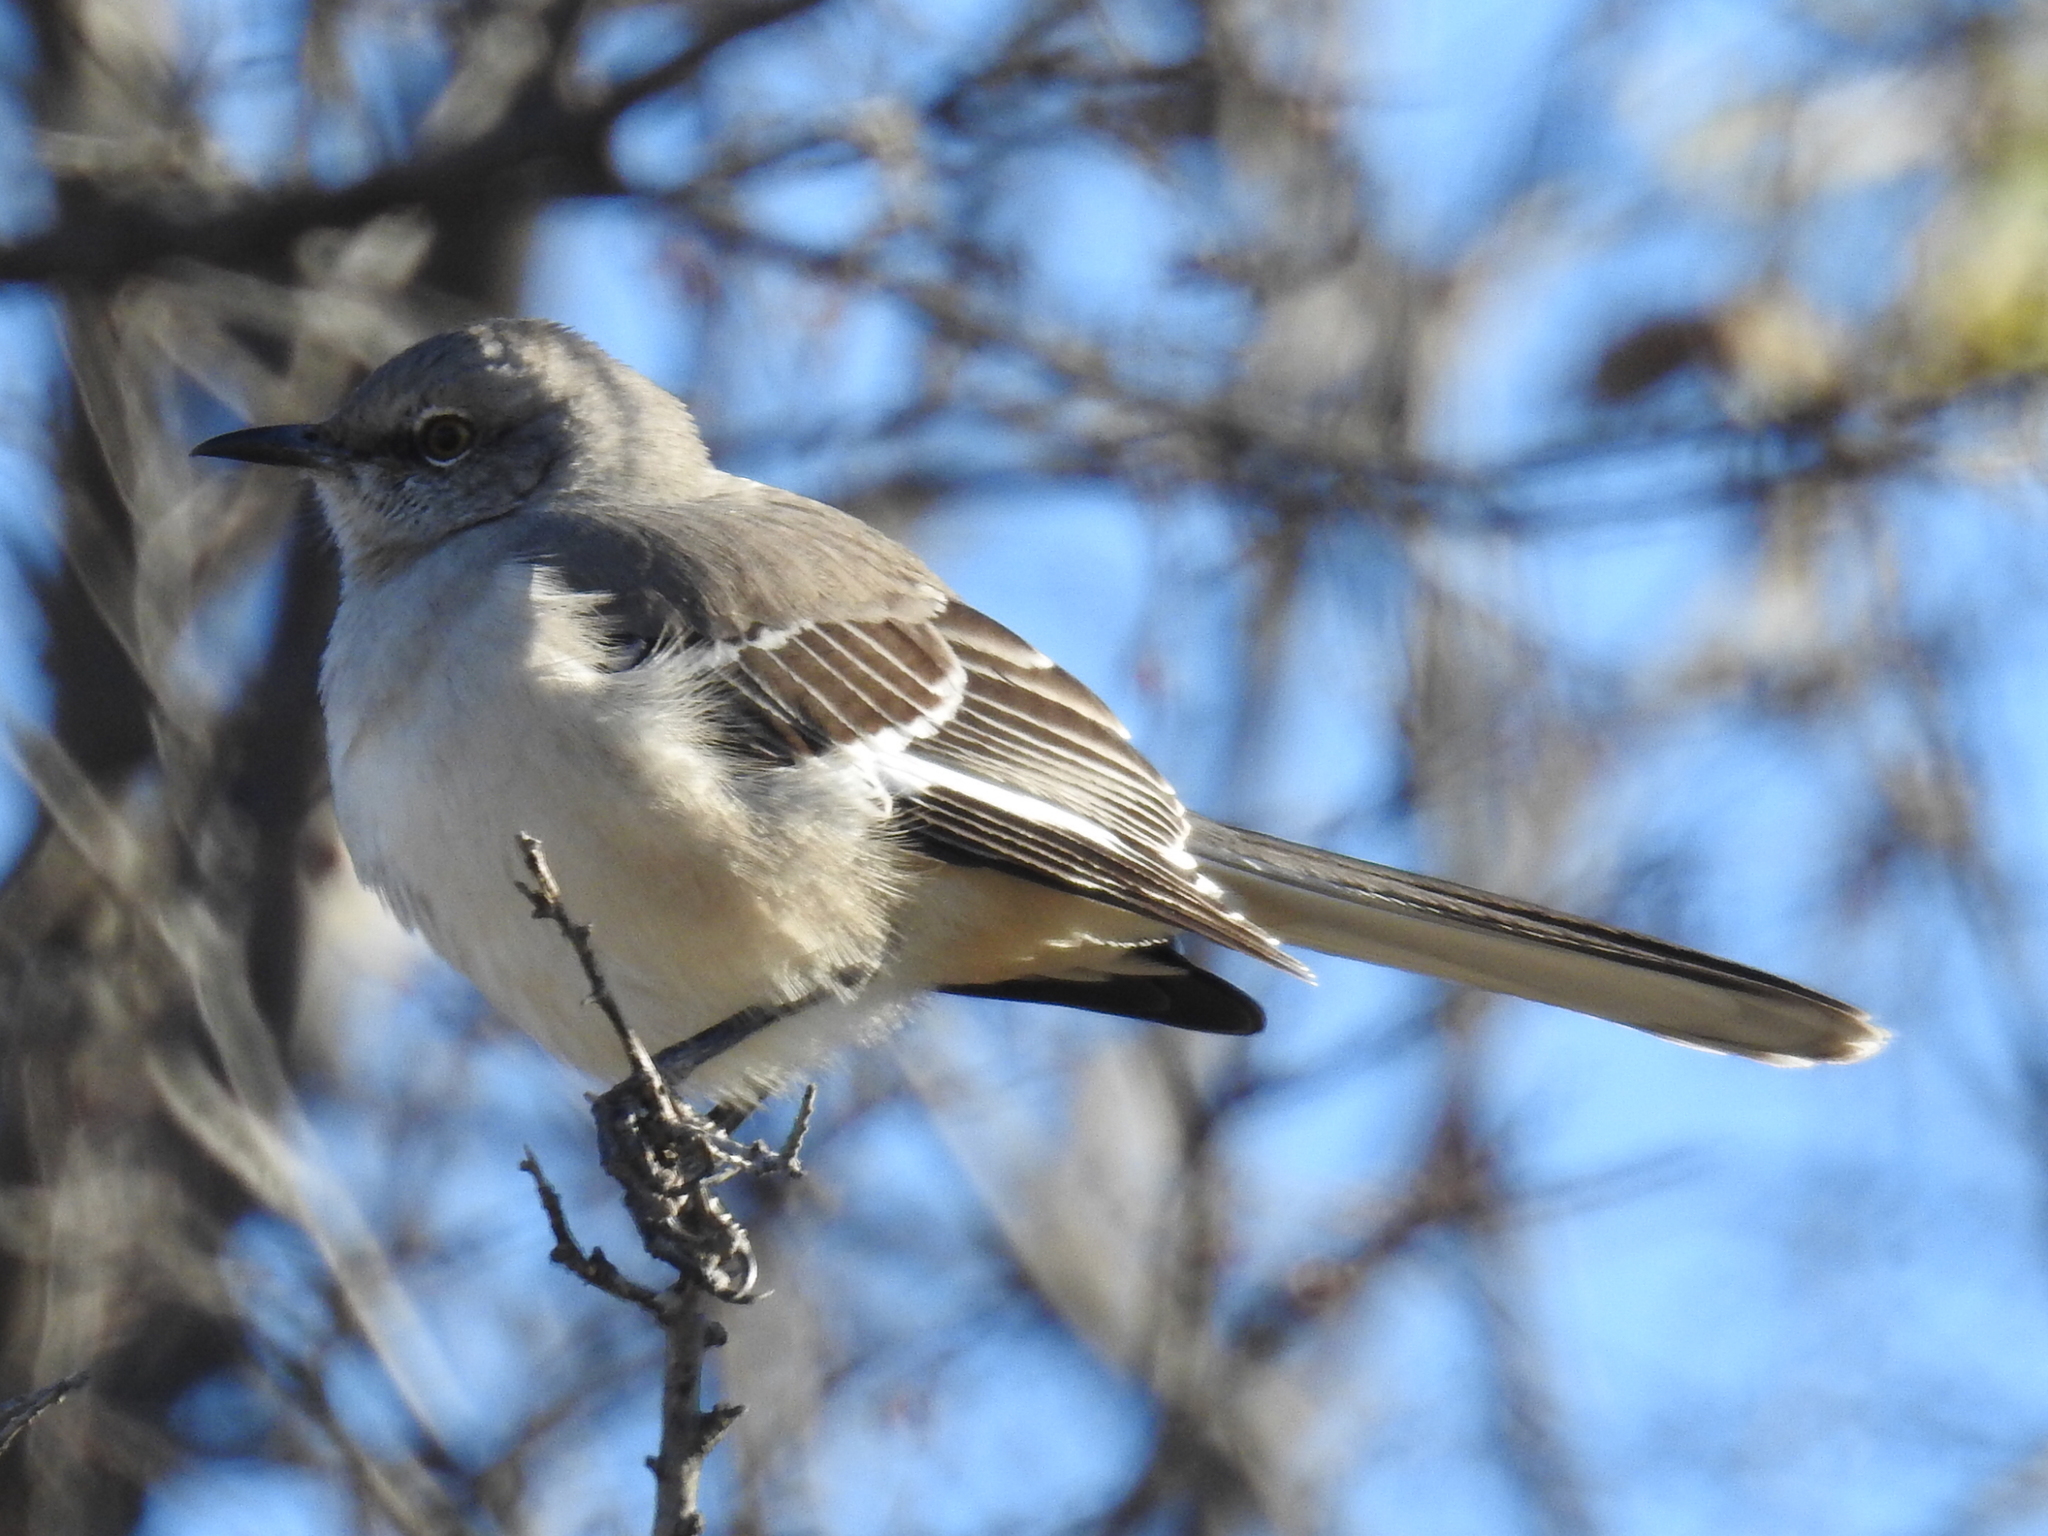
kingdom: Animalia
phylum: Chordata
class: Aves
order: Passeriformes
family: Mimidae
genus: Mimus
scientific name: Mimus polyglottos
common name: Northern mockingbird
